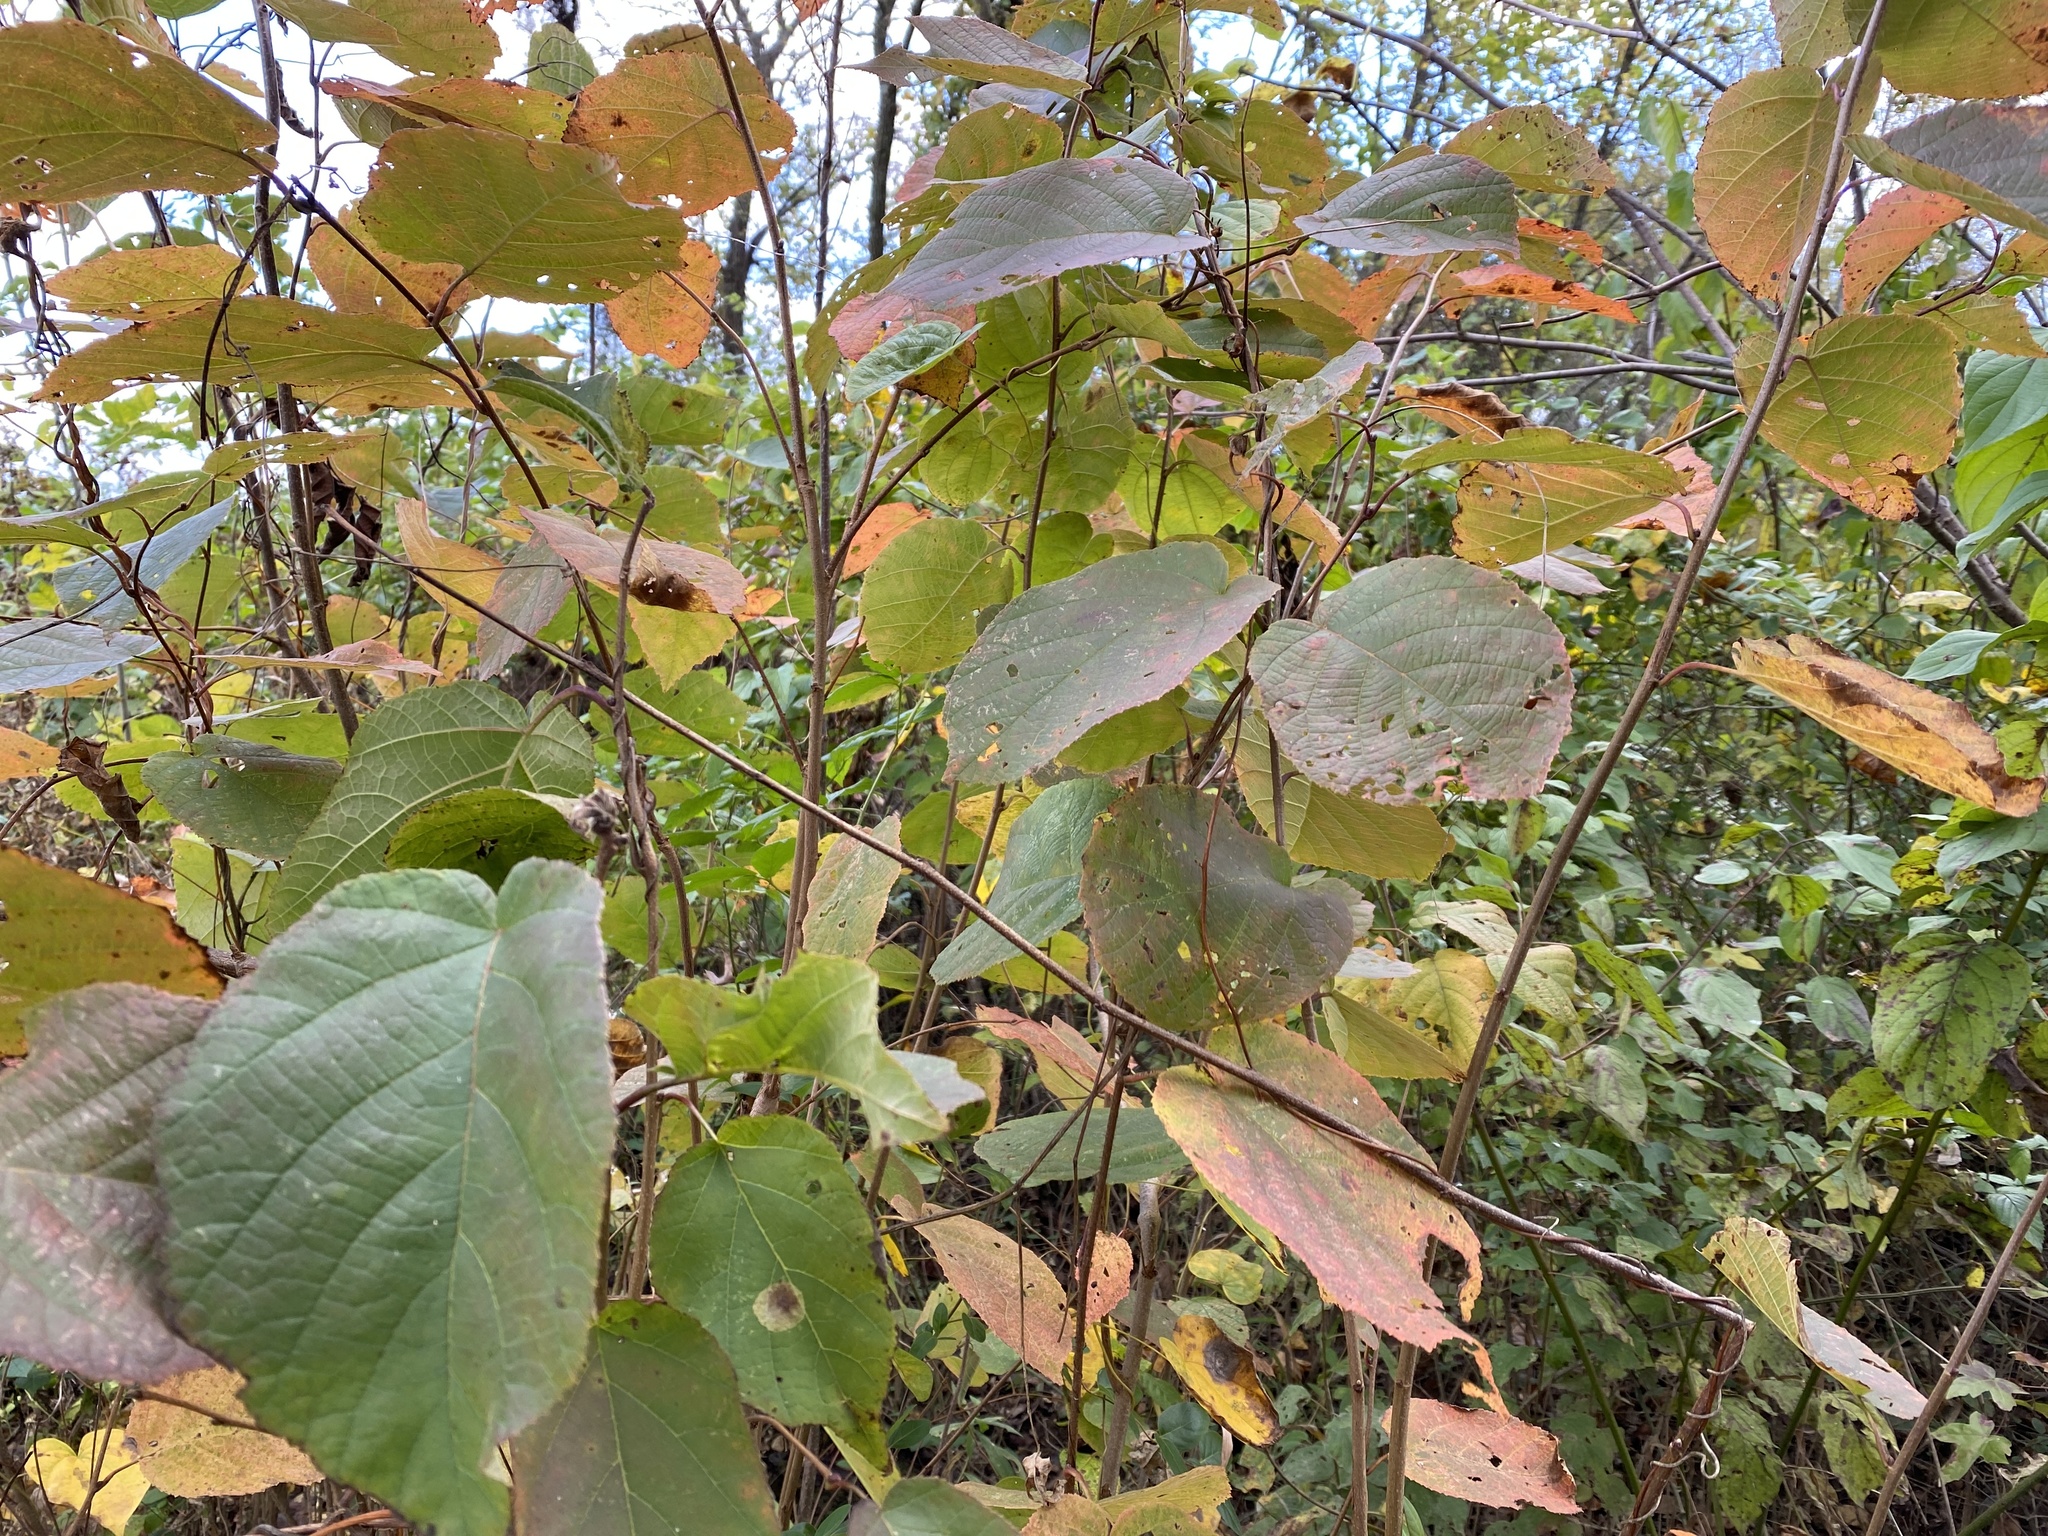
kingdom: Plantae
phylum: Tracheophyta
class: Magnoliopsida
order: Malvales
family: Malvaceae
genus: Tilia
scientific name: Tilia americana
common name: Basswood
